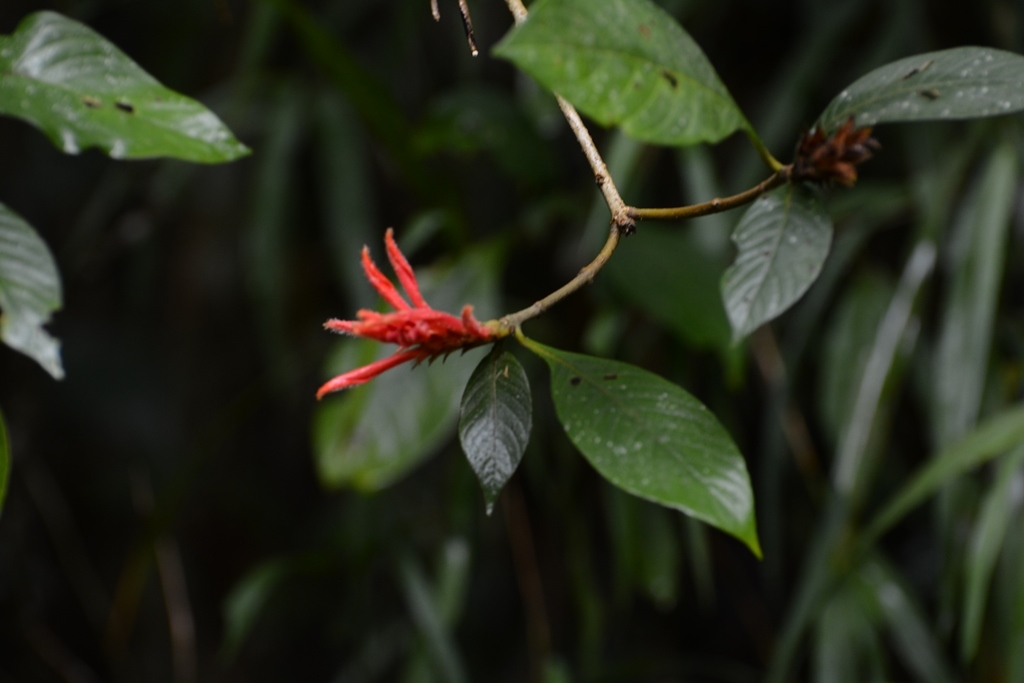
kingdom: Plantae
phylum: Tracheophyta
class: Magnoliopsida
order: Lamiales
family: Acanthaceae
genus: Aphelandra
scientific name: Aphelandra scabra
